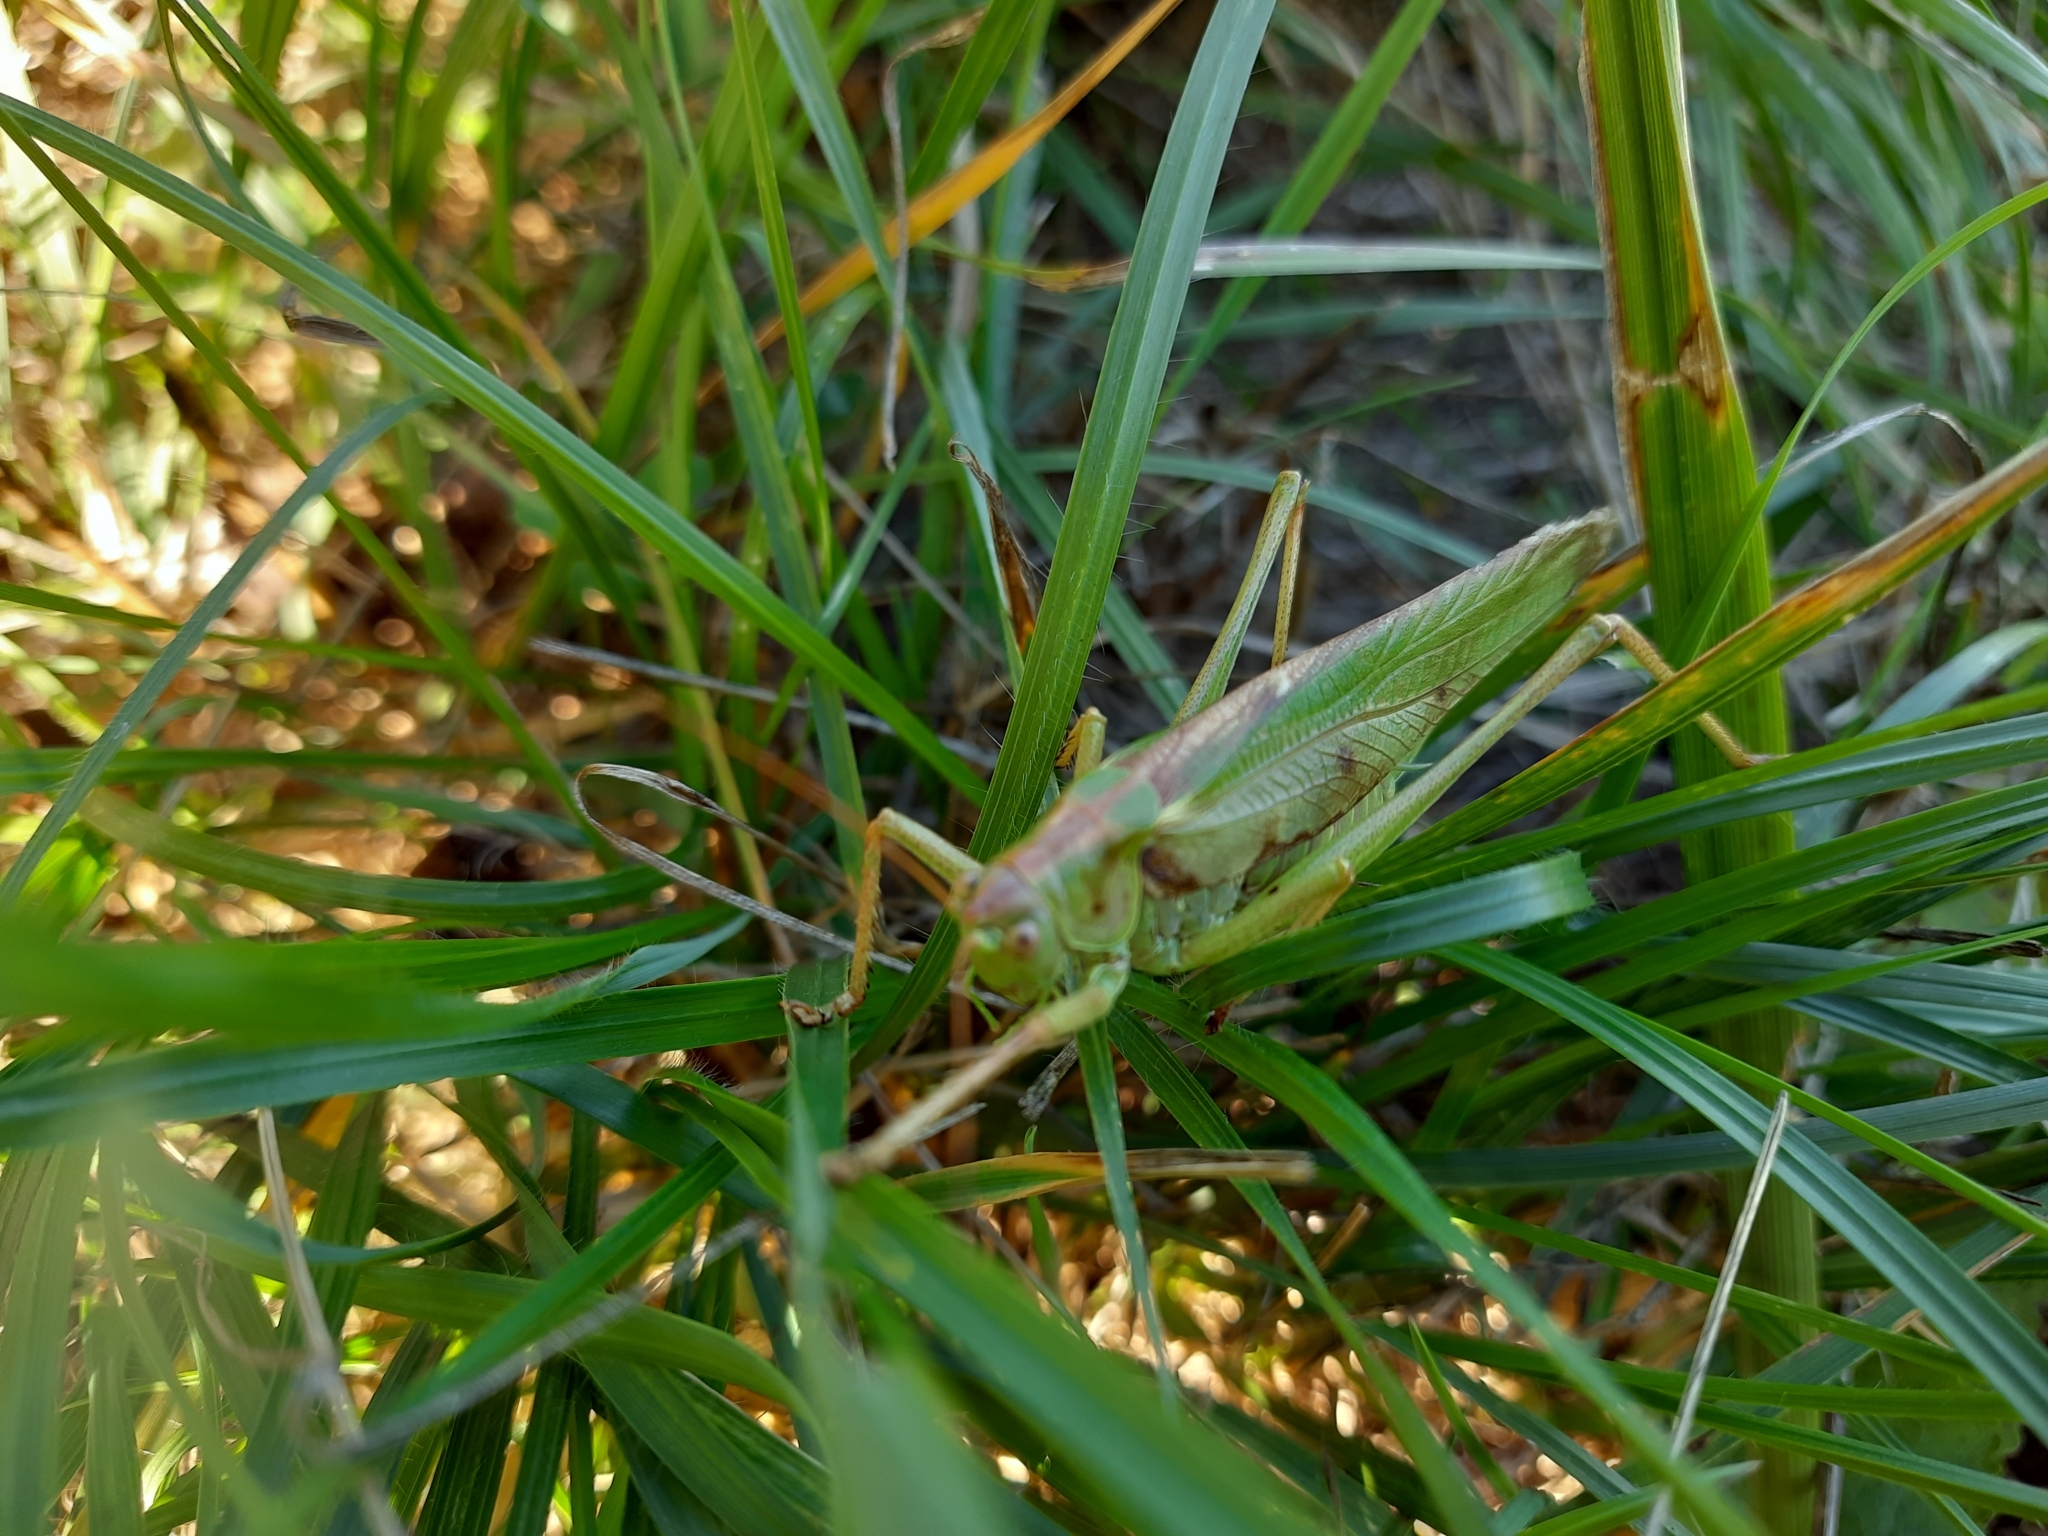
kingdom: Animalia
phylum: Arthropoda
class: Insecta
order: Orthoptera
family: Tettigoniidae
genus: Tettigonia
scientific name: Tettigonia viridissima
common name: Great green bush-cricket
